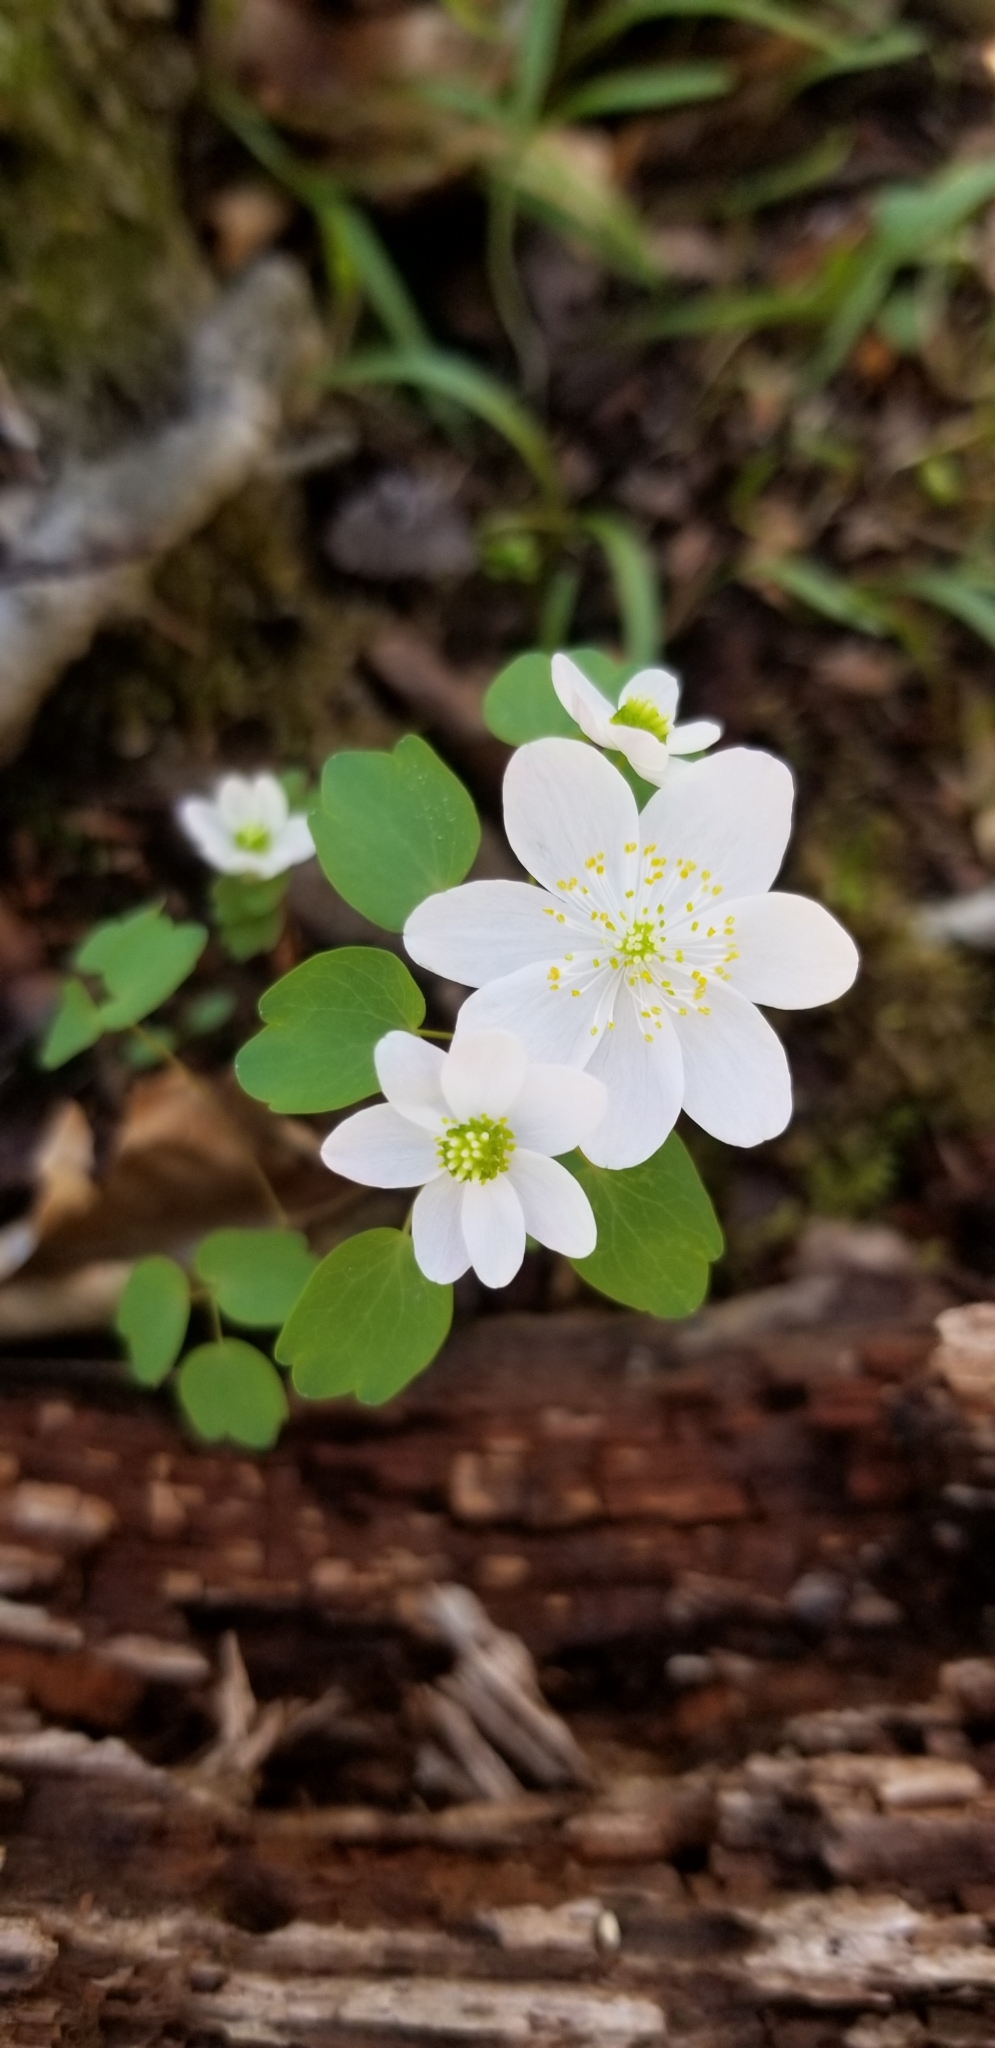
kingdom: Plantae
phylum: Tracheophyta
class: Magnoliopsida
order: Ranunculales
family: Ranunculaceae
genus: Thalictrum
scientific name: Thalictrum thalictroides
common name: Rue-anemone
